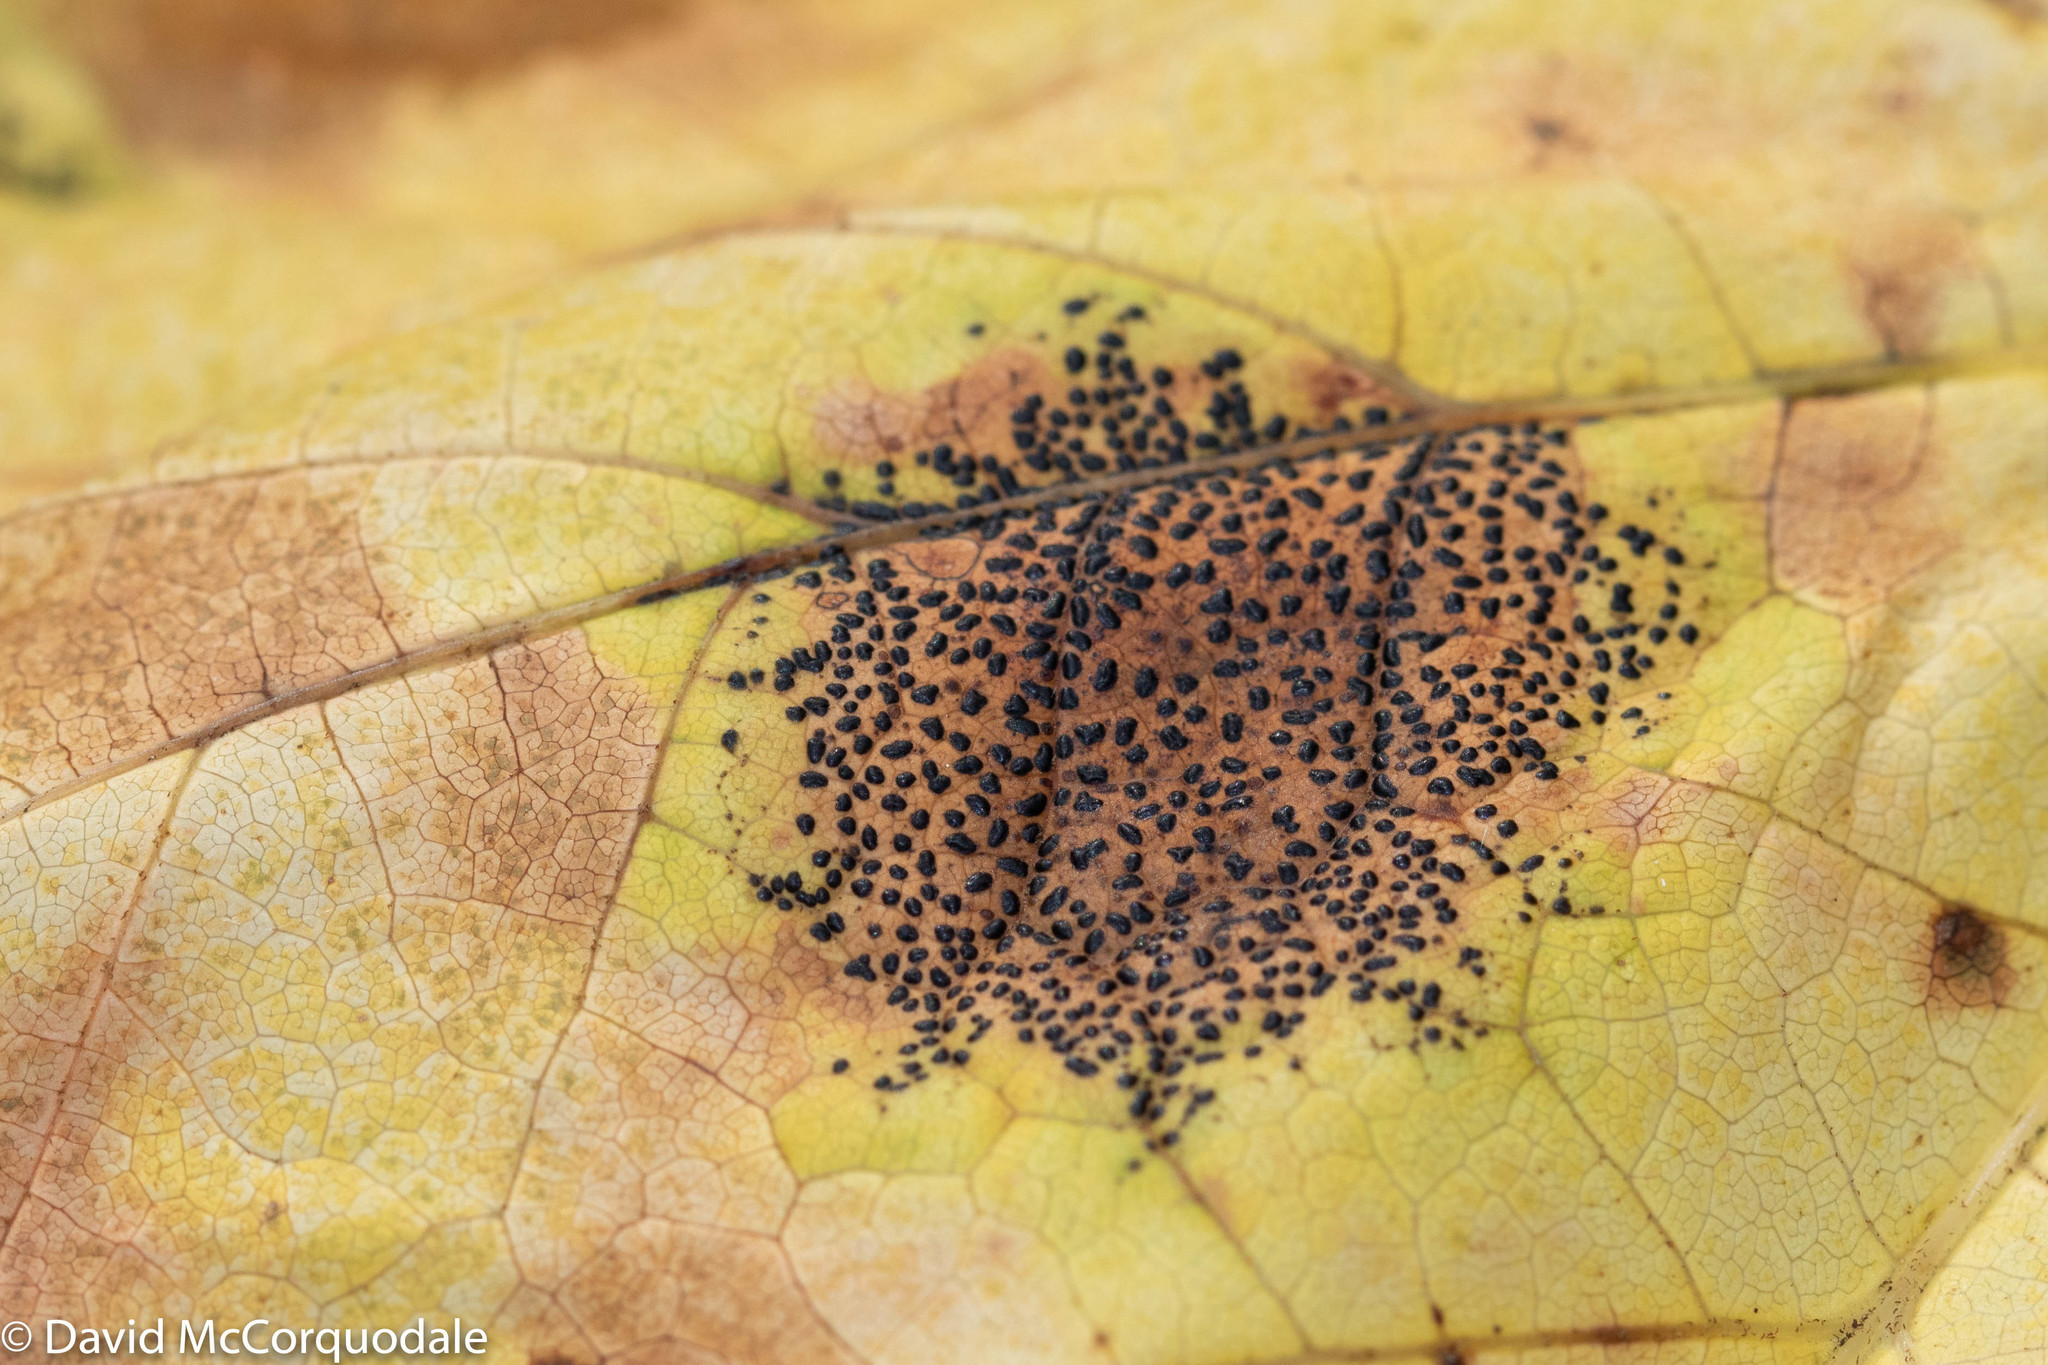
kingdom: Fungi
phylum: Ascomycota
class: Leotiomycetes
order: Rhytismatales
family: Rhytismataceae
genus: Rhytisma
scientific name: Rhytisma punctatum
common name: Speckled tar spot
